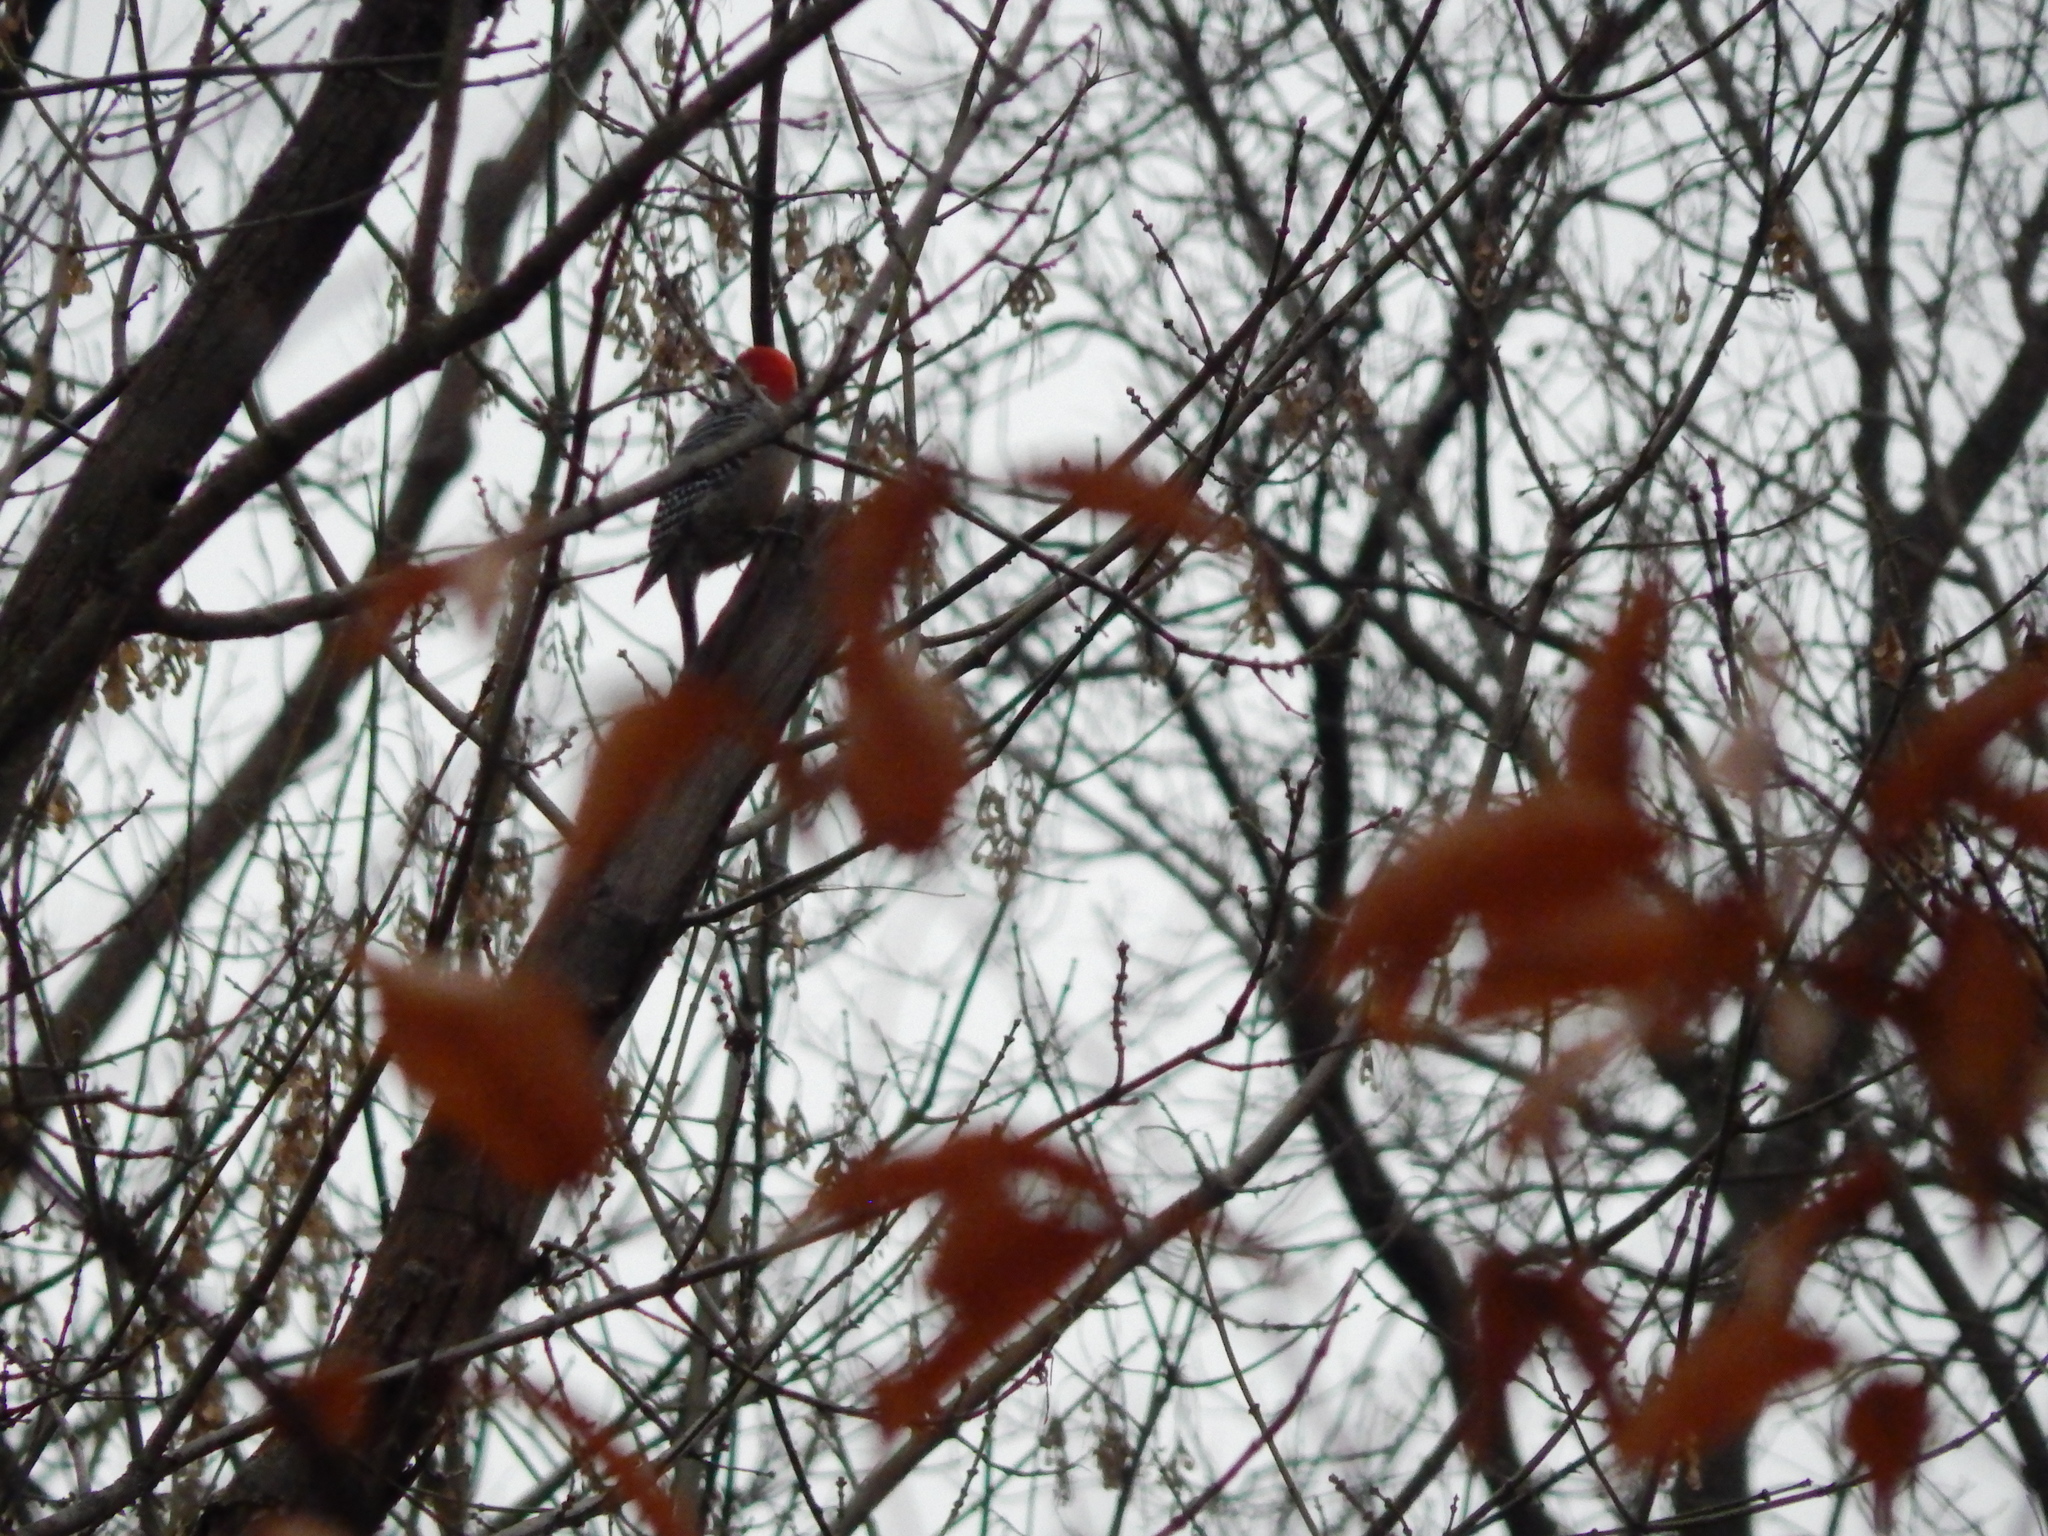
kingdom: Animalia
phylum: Chordata
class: Aves
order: Piciformes
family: Picidae
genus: Melanerpes
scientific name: Melanerpes carolinus
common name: Red-bellied woodpecker
